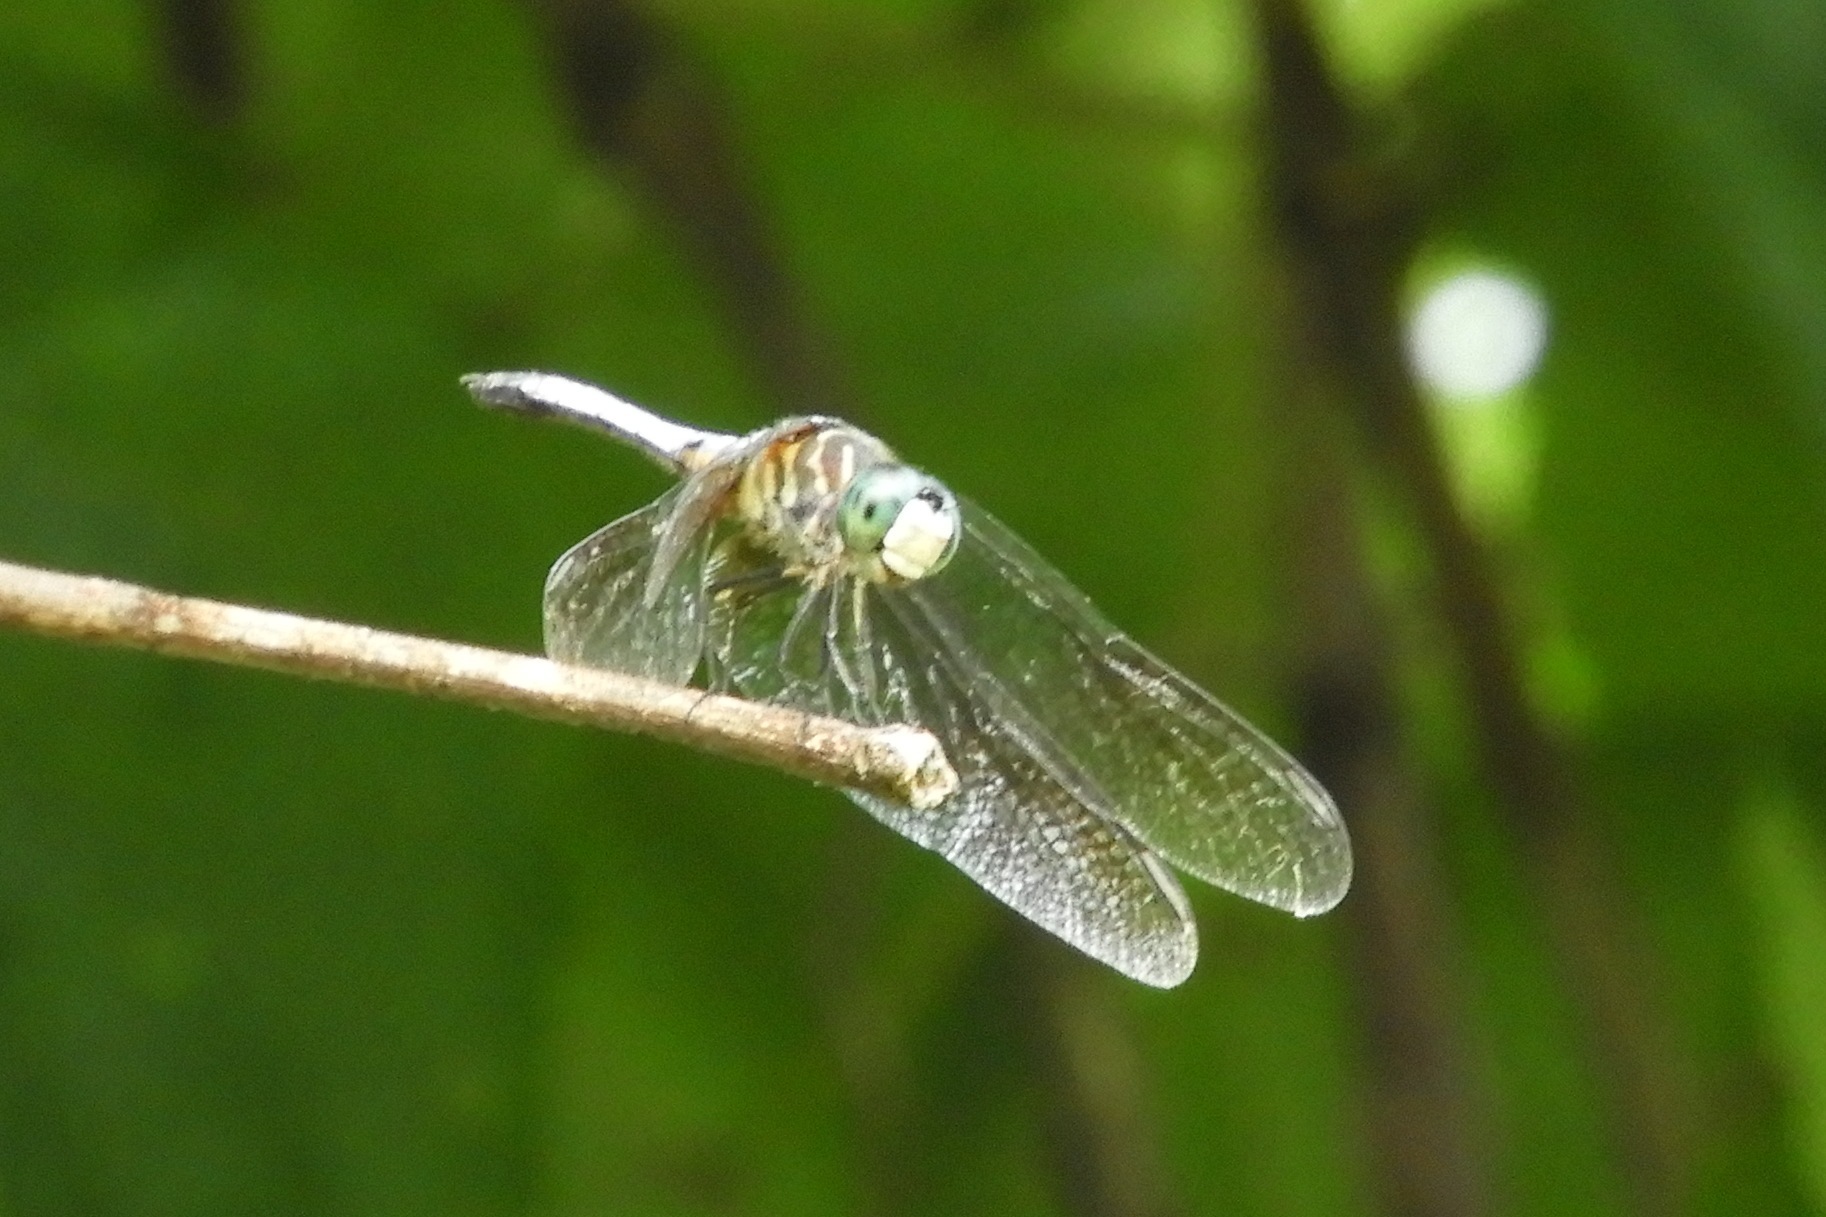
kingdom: Animalia
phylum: Arthropoda
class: Insecta
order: Odonata
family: Libellulidae
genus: Pachydiplax
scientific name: Pachydiplax longipennis
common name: Blue dasher
